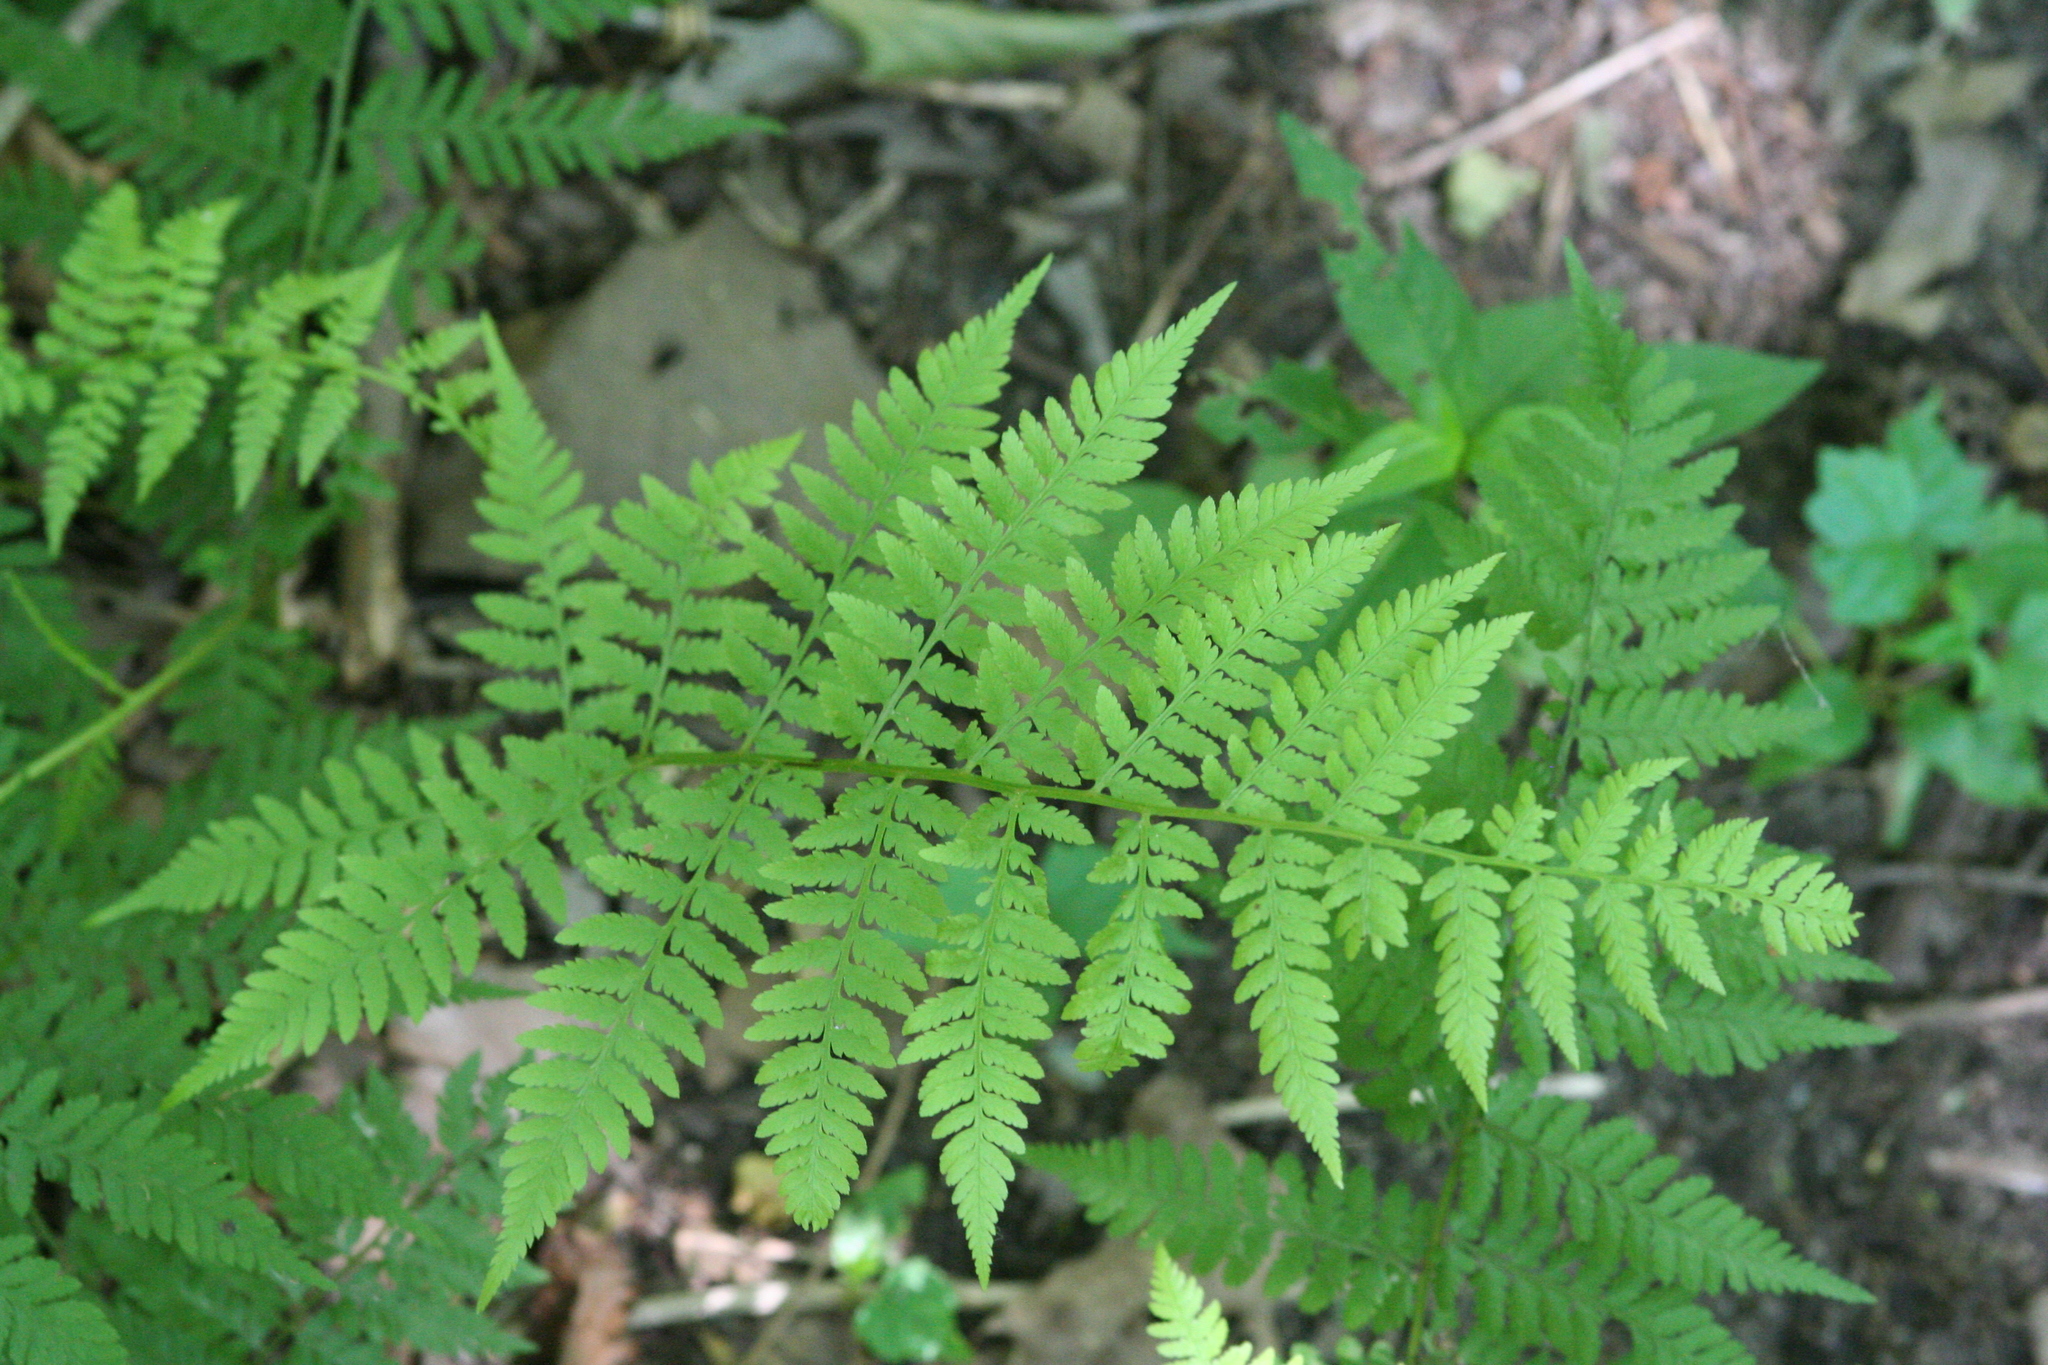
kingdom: Plantae
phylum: Tracheophyta
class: Polypodiopsida
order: Polypodiales
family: Athyriaceae
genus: Athyrium
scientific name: Athyrium asplenioides
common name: Southern lady fern
